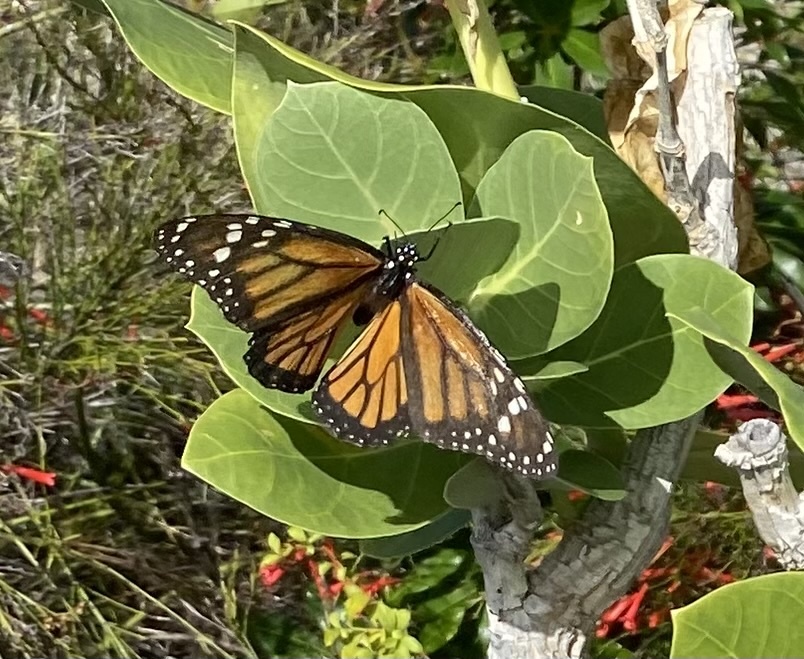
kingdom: Animalia
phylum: Arthropoda
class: Insecta
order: Lepidoptera
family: Nymphalidae
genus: Danaus
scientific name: Danaus plexippus
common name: Monarch
